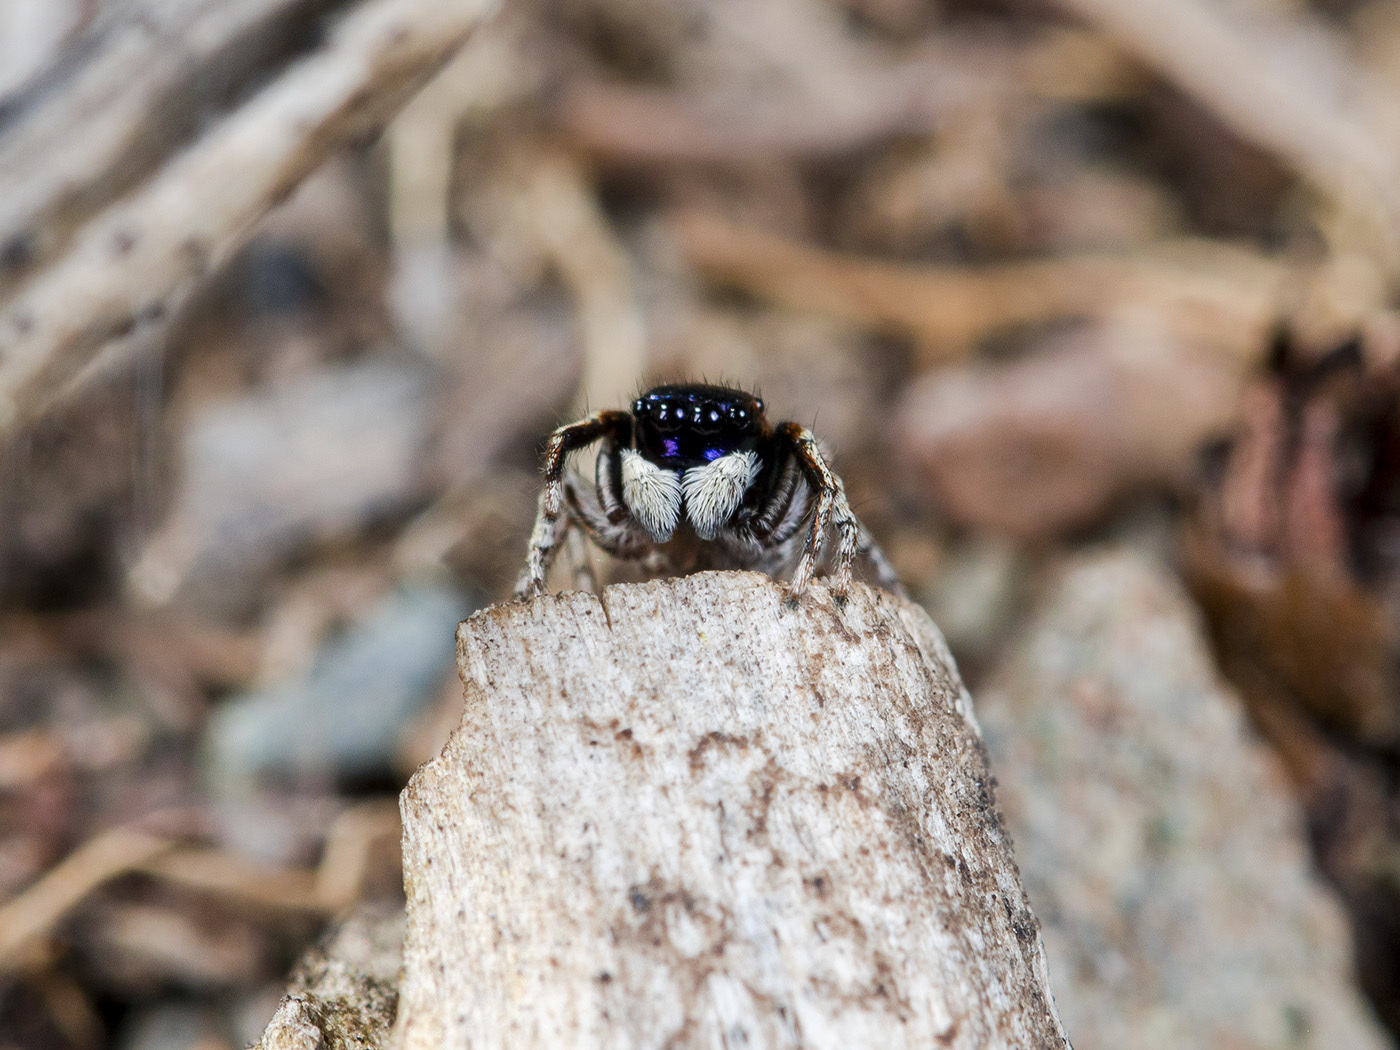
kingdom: Animalia
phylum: Arthropoda
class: Arachnida
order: Araneae
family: Salticidae
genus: Attulus
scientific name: Attulus mirandus
